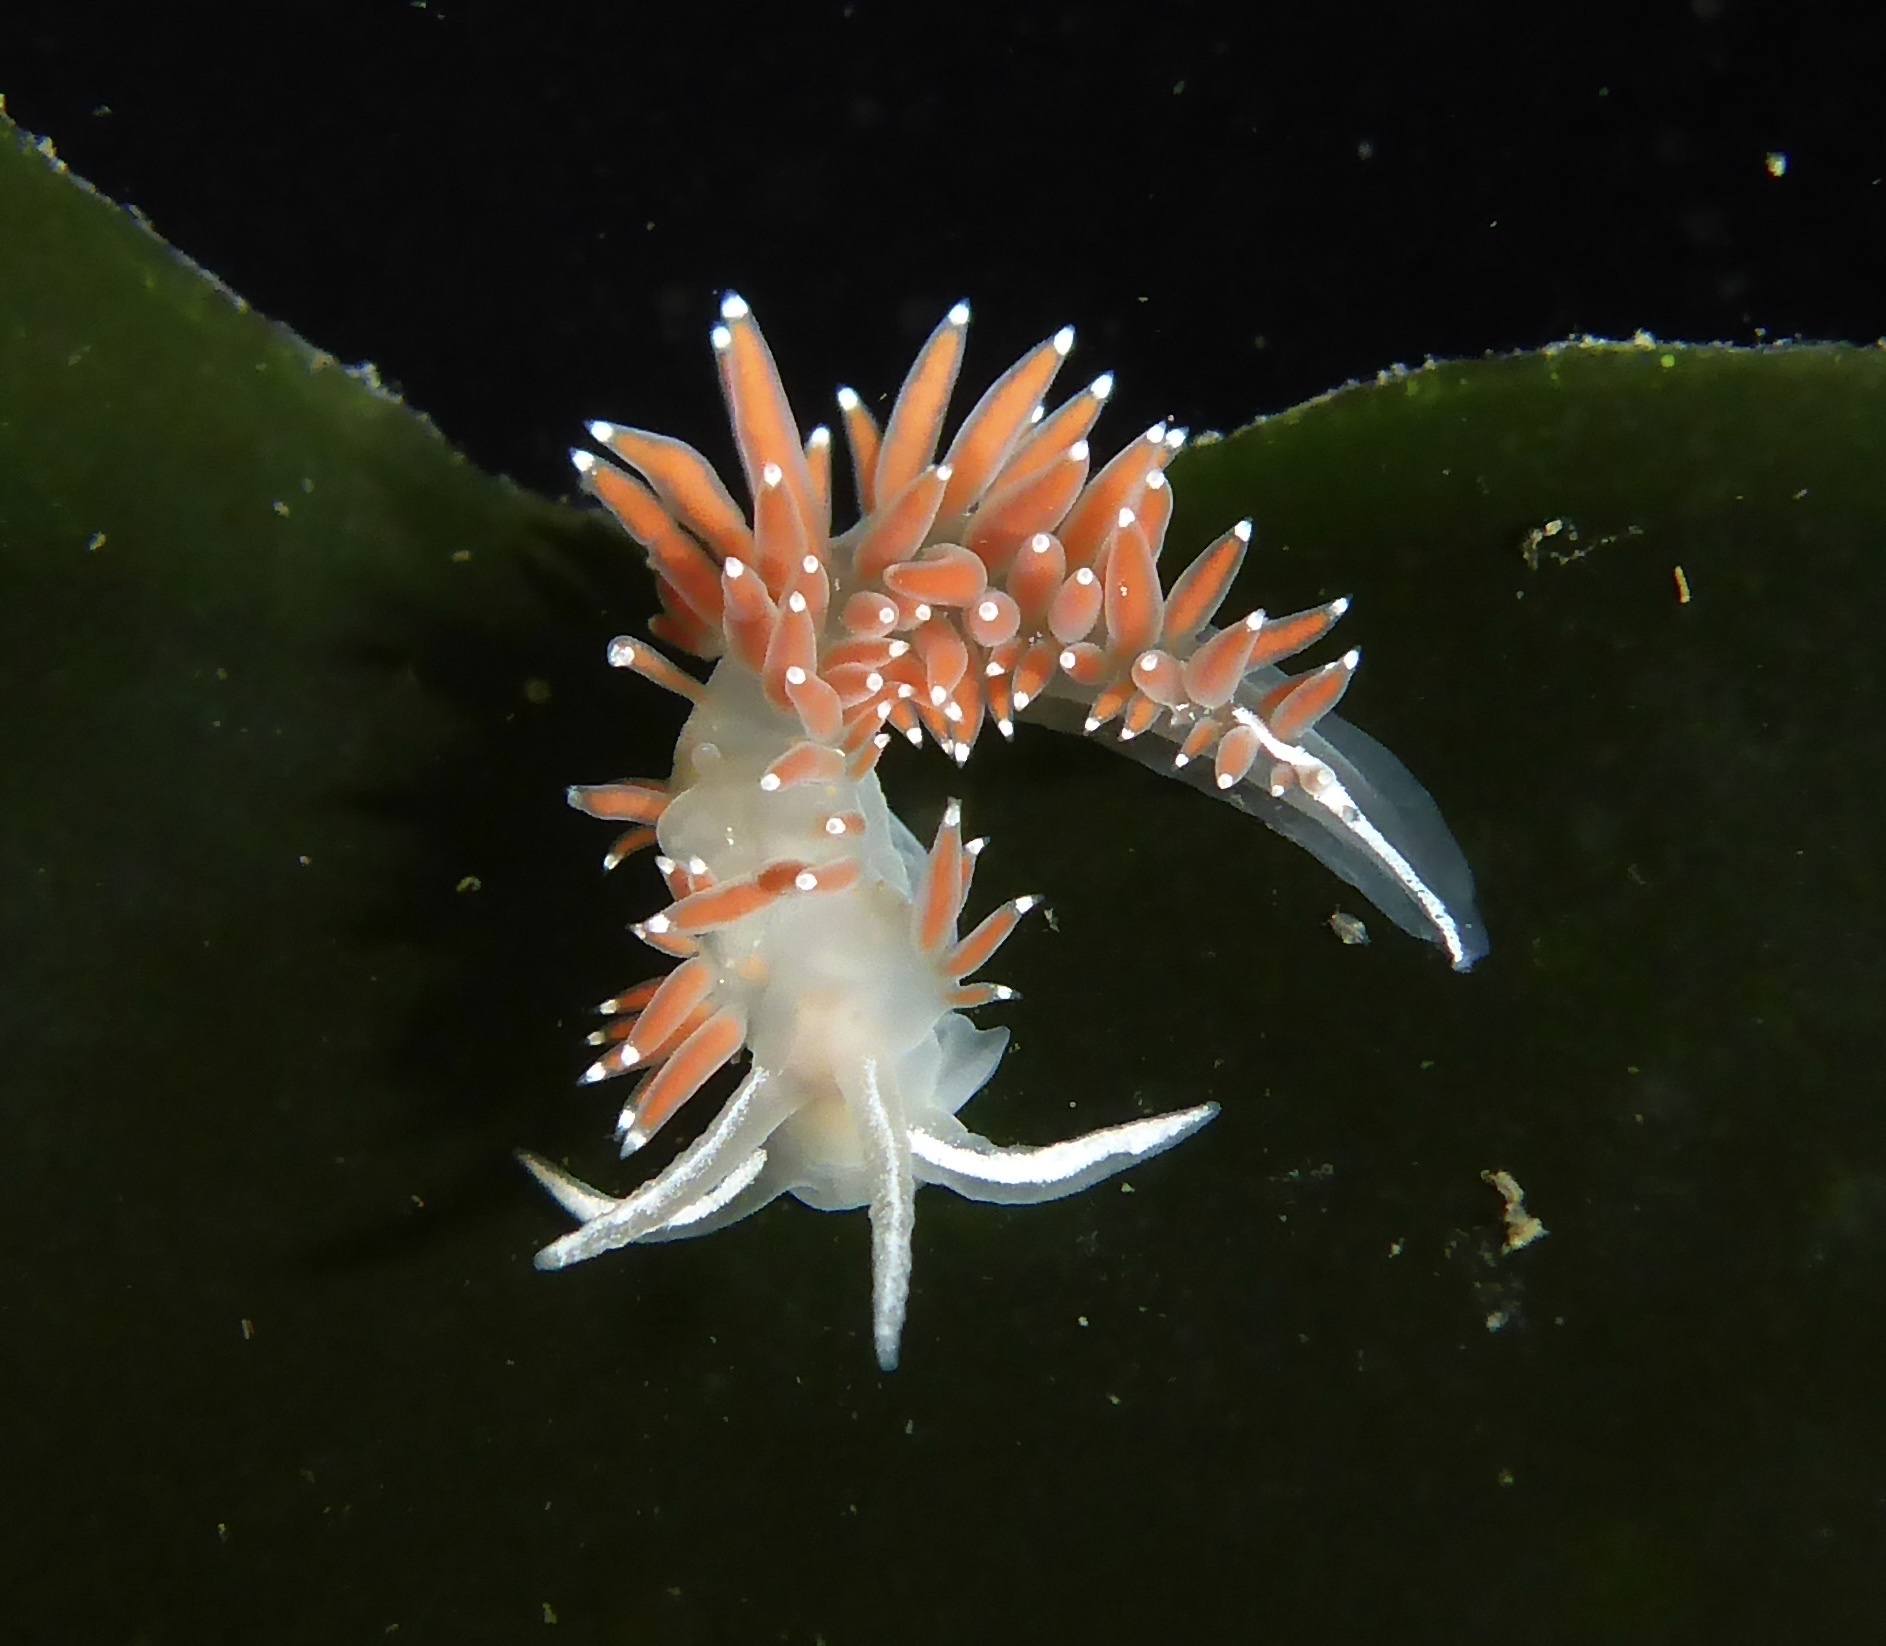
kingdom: Animalia
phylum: Mollusca
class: Gastropoda
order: Nudibranchia
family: Coryphellidae
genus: Coryphella
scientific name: Coryphella verrucosa
